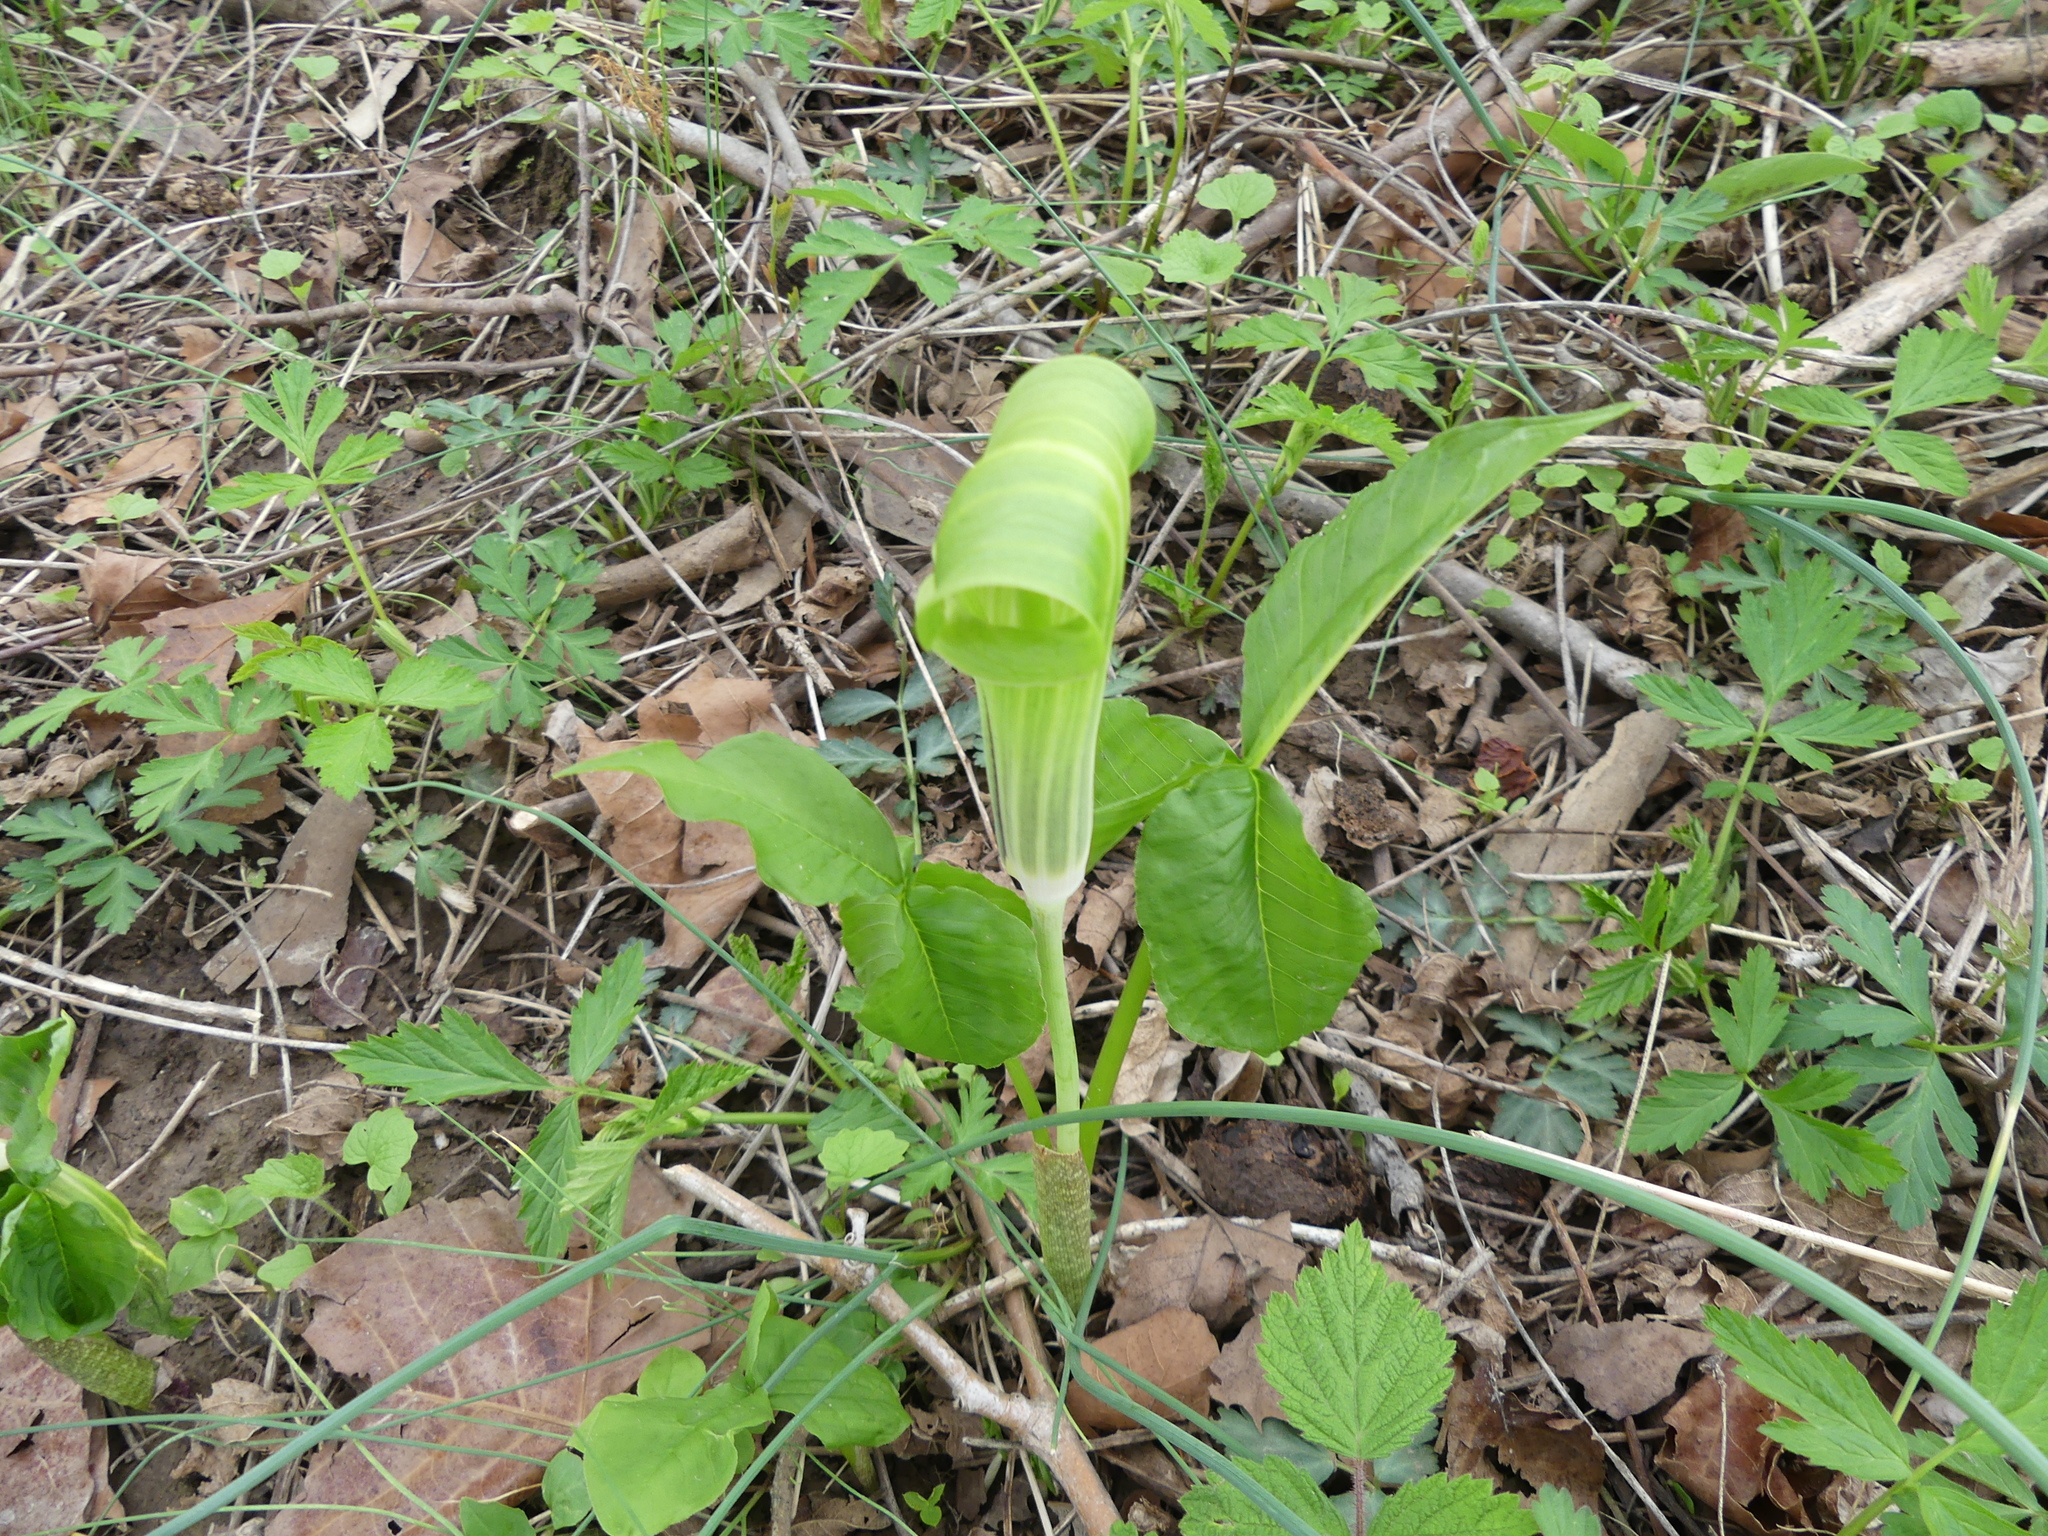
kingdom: Plantae
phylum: Tracheophyta
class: Liliopsida
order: Alismatales
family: Araceae
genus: Arisaema
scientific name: Arisaema triphyllum
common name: Jack-in-the-pulpit
